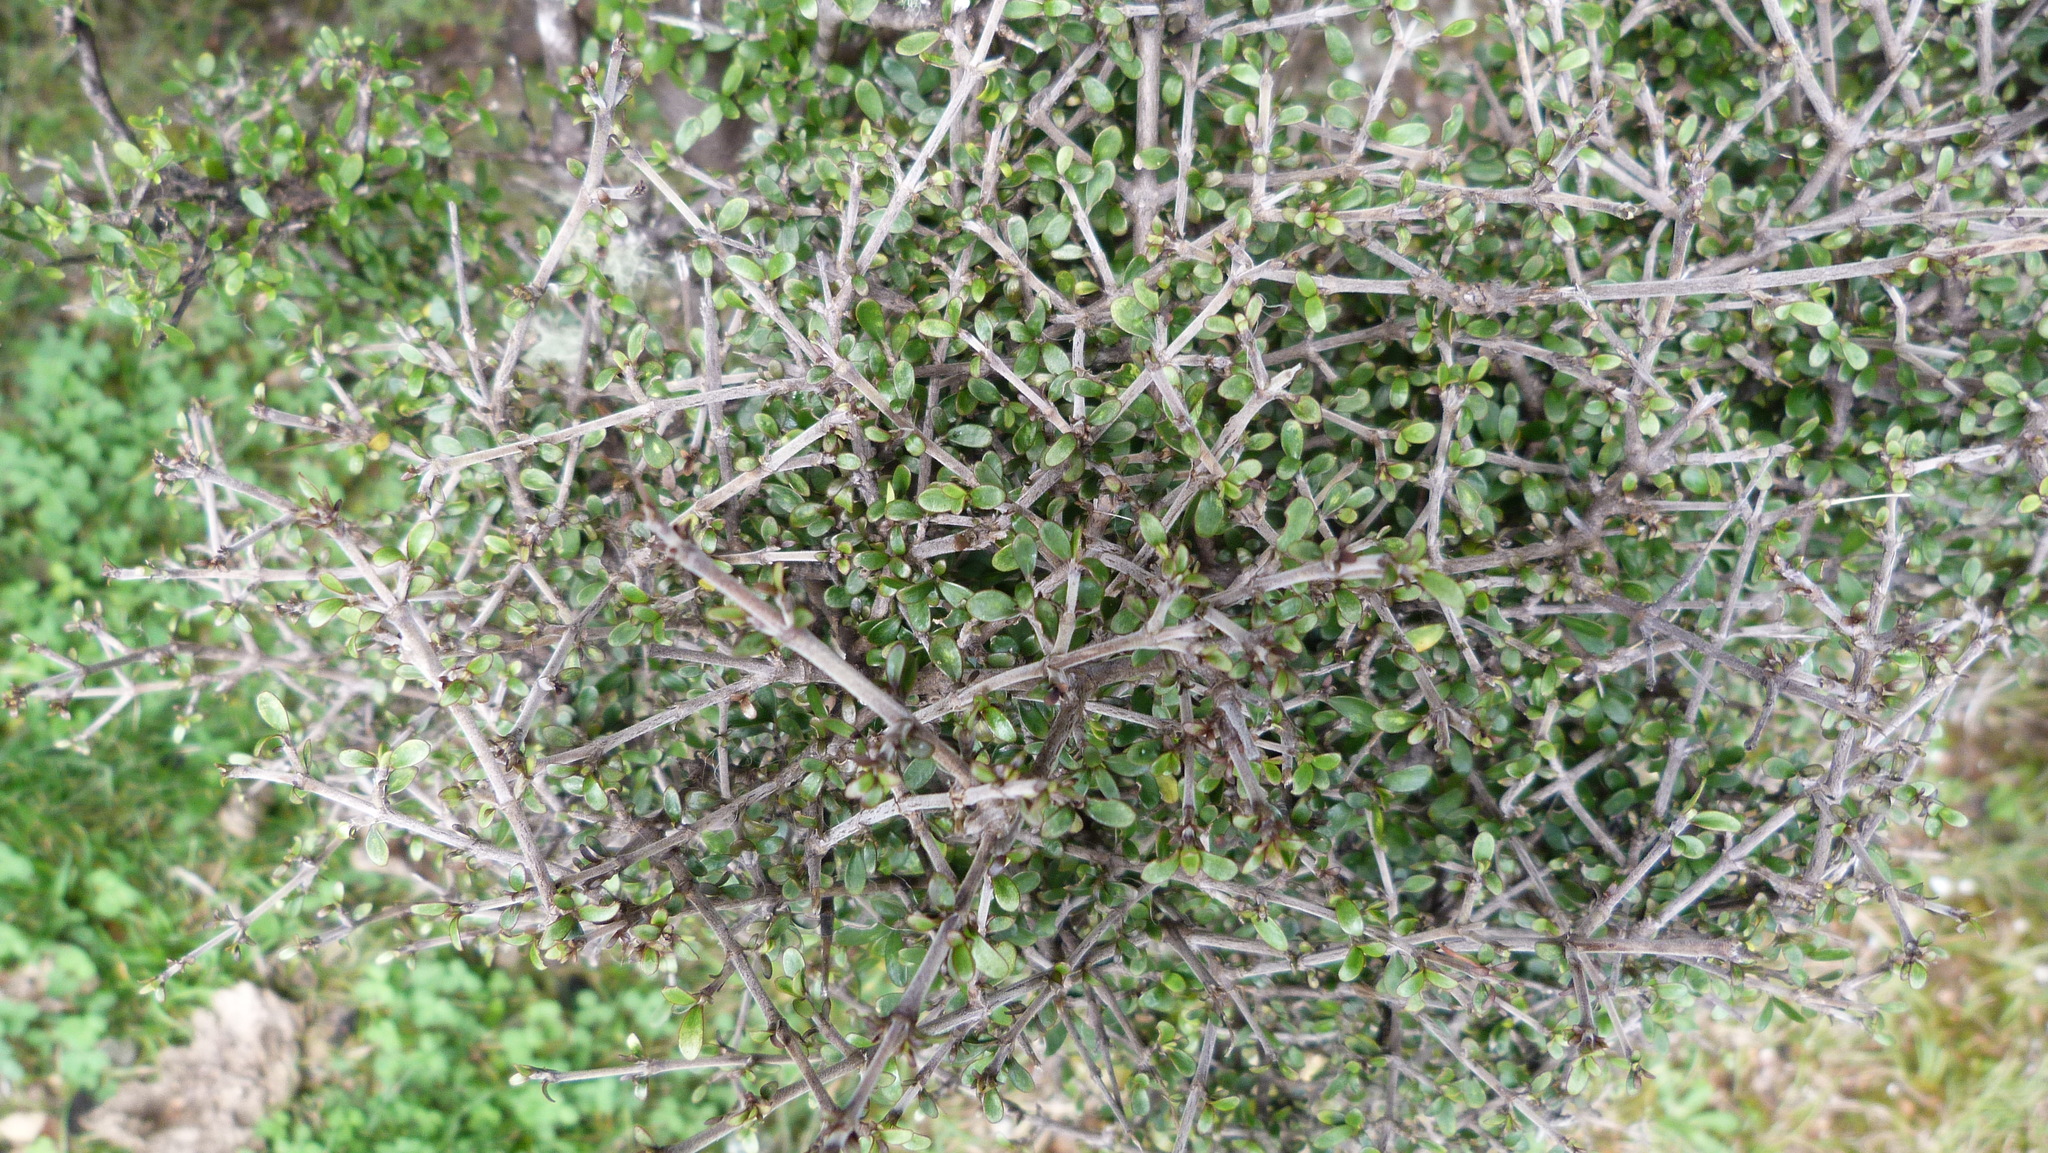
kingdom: Plantae
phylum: Tracheophyta
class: Magnoliopsida
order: Gentianales
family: Rubiaceae
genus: Coprosma
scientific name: Coprosma dumosa
